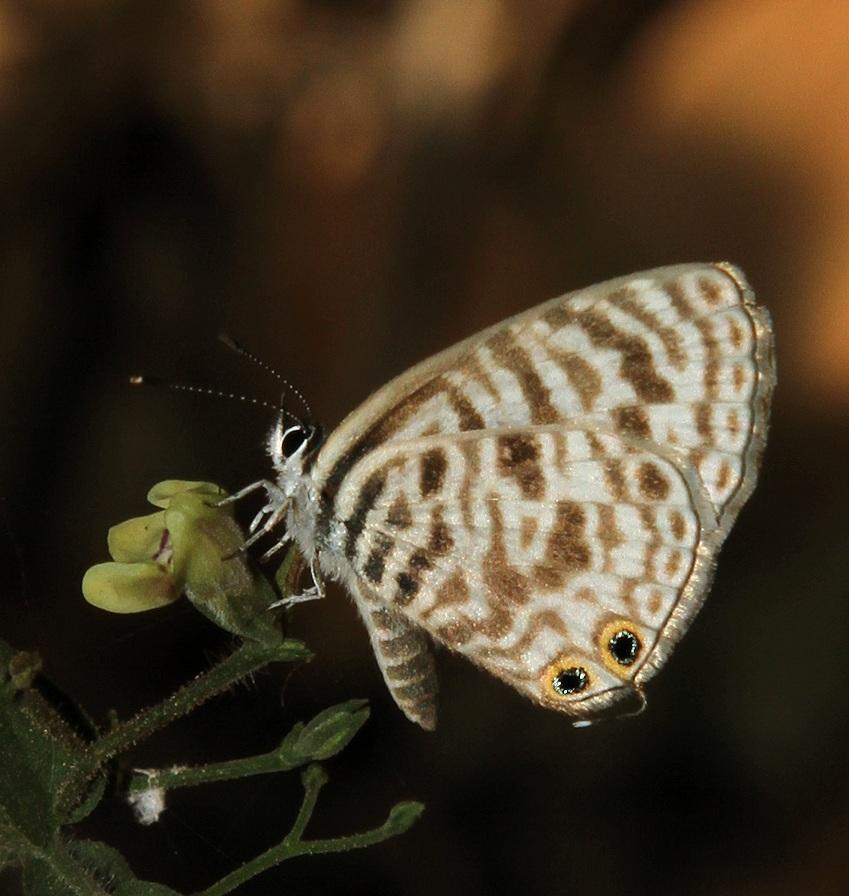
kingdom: Animalia
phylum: Arthropoda
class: Insecta
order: Lepidoptera
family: Lycaenidae
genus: Leptotes
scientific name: Leptotes
